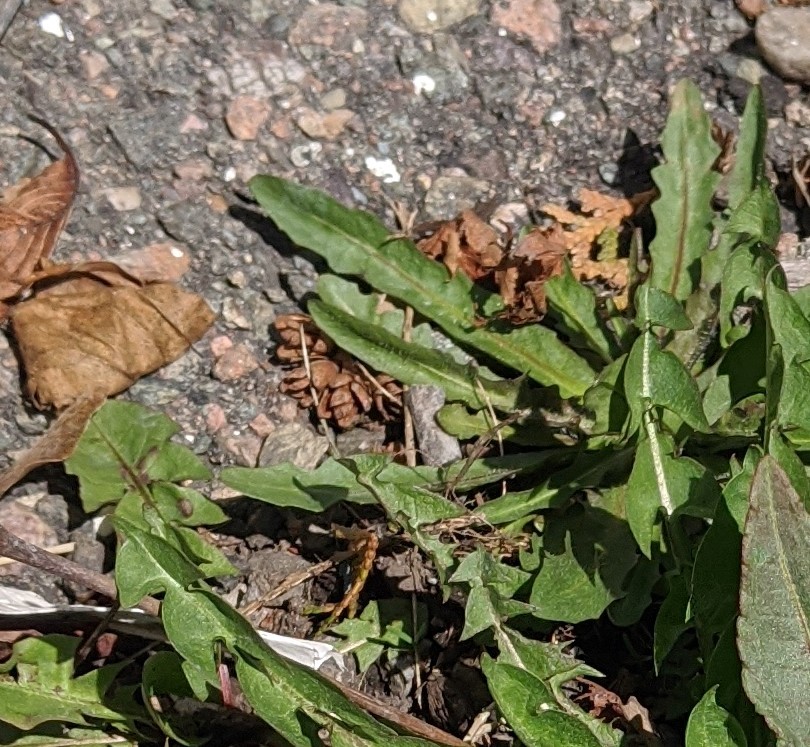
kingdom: Plantae
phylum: Tracheophyta
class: Magnoliopsida
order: Asterales
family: Asteraceae
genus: Taraxacum
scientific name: Taraxacum officinale
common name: Common dandelion
